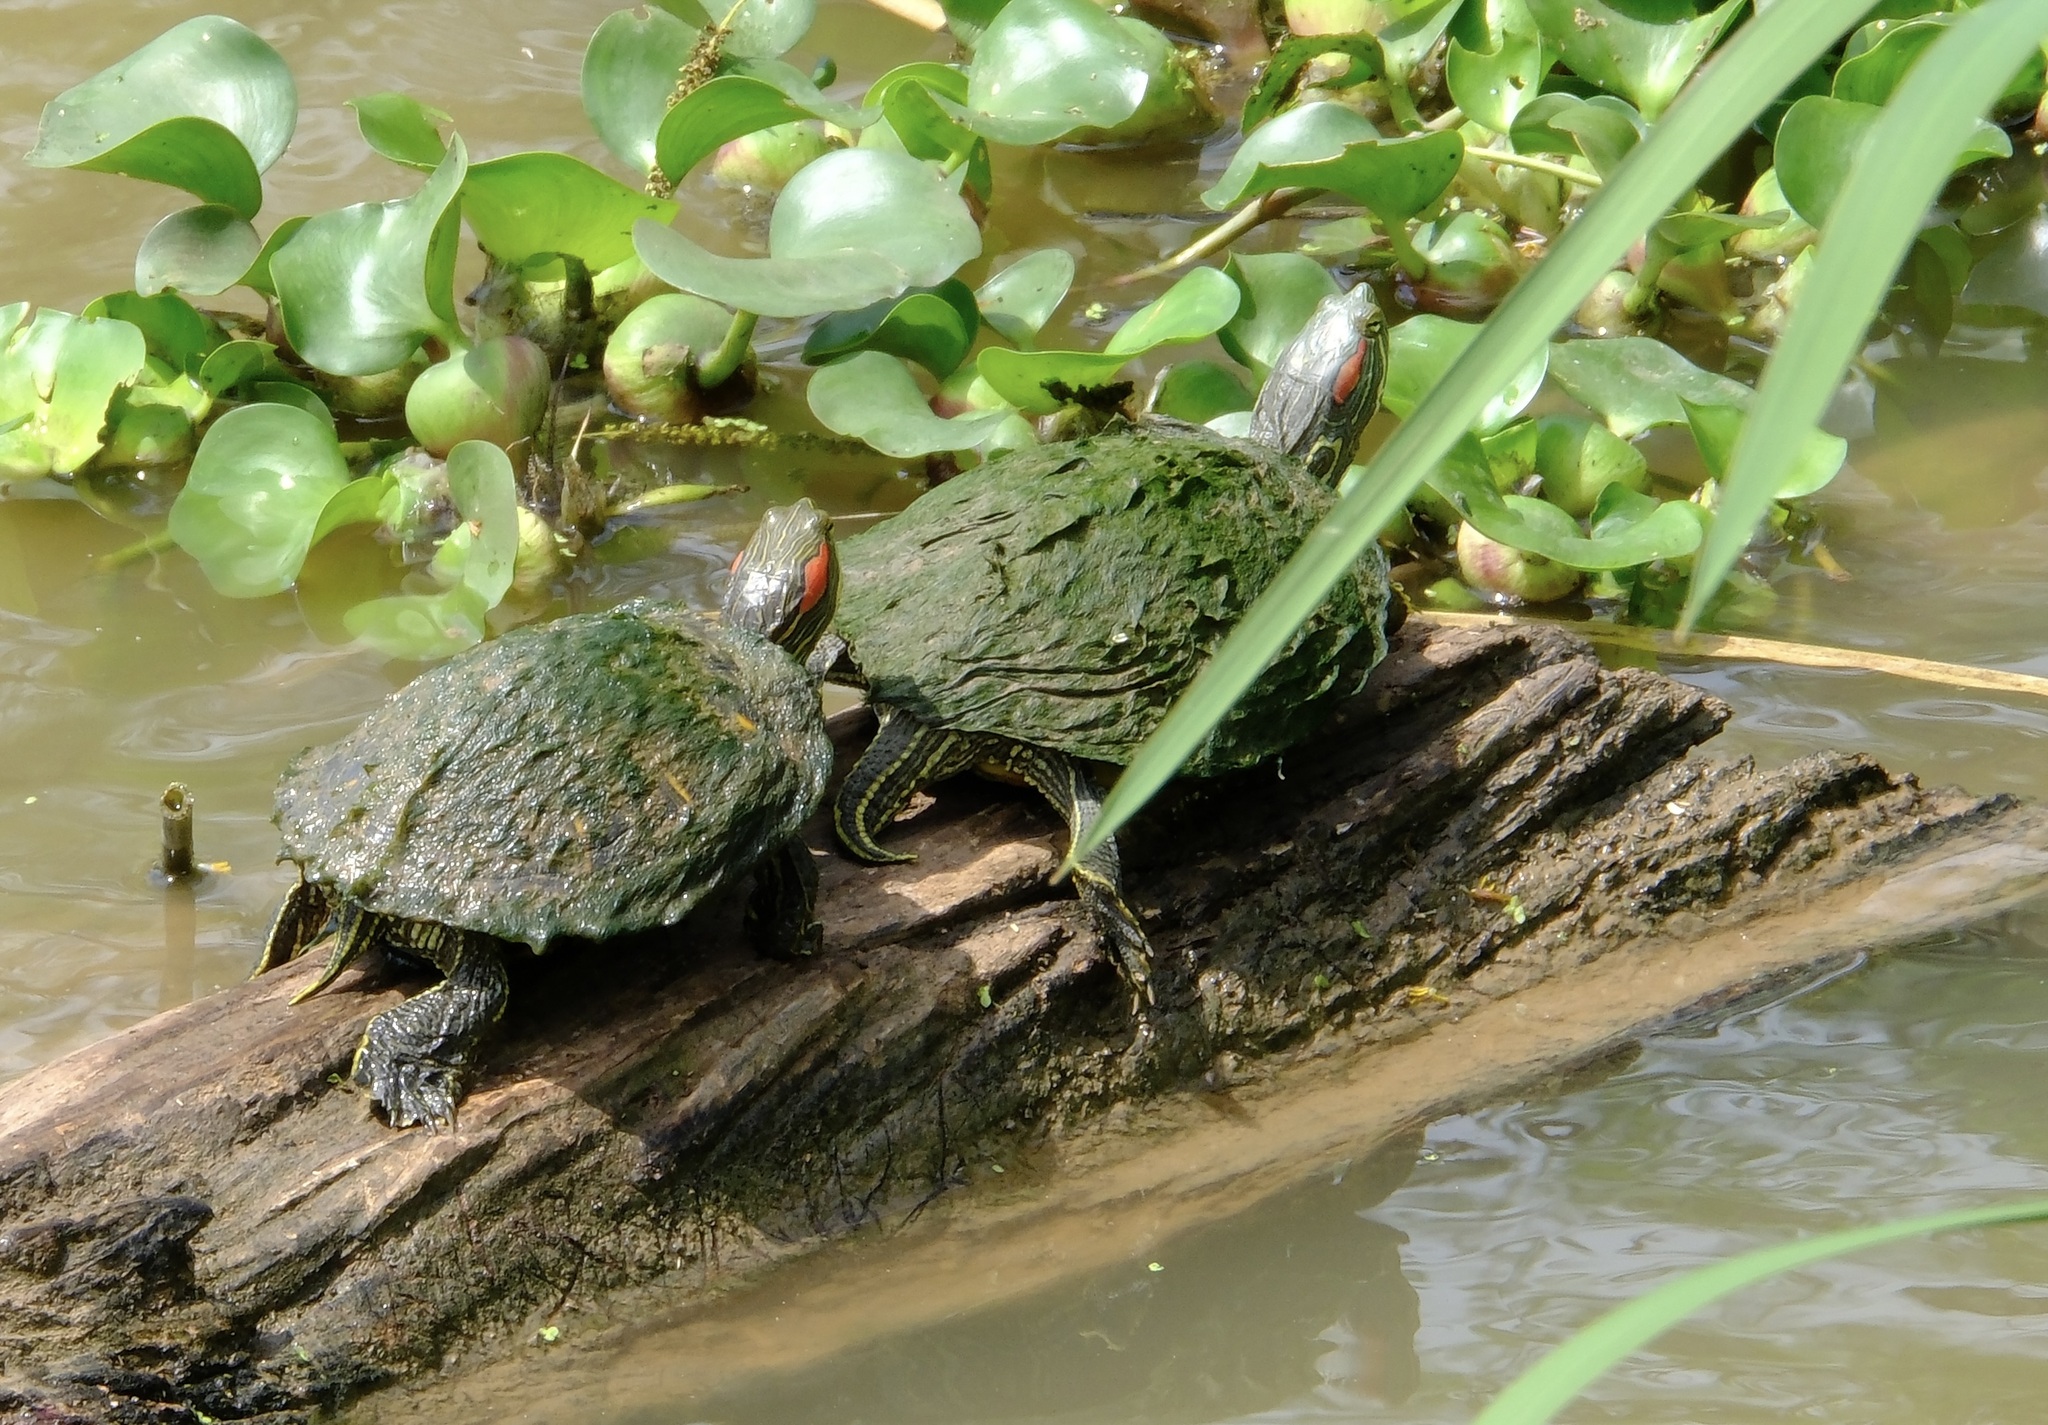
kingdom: Animalia
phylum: Chordata
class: Testudines
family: Emydidae
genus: Trachemys
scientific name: Trachemys scripta
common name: Slider
